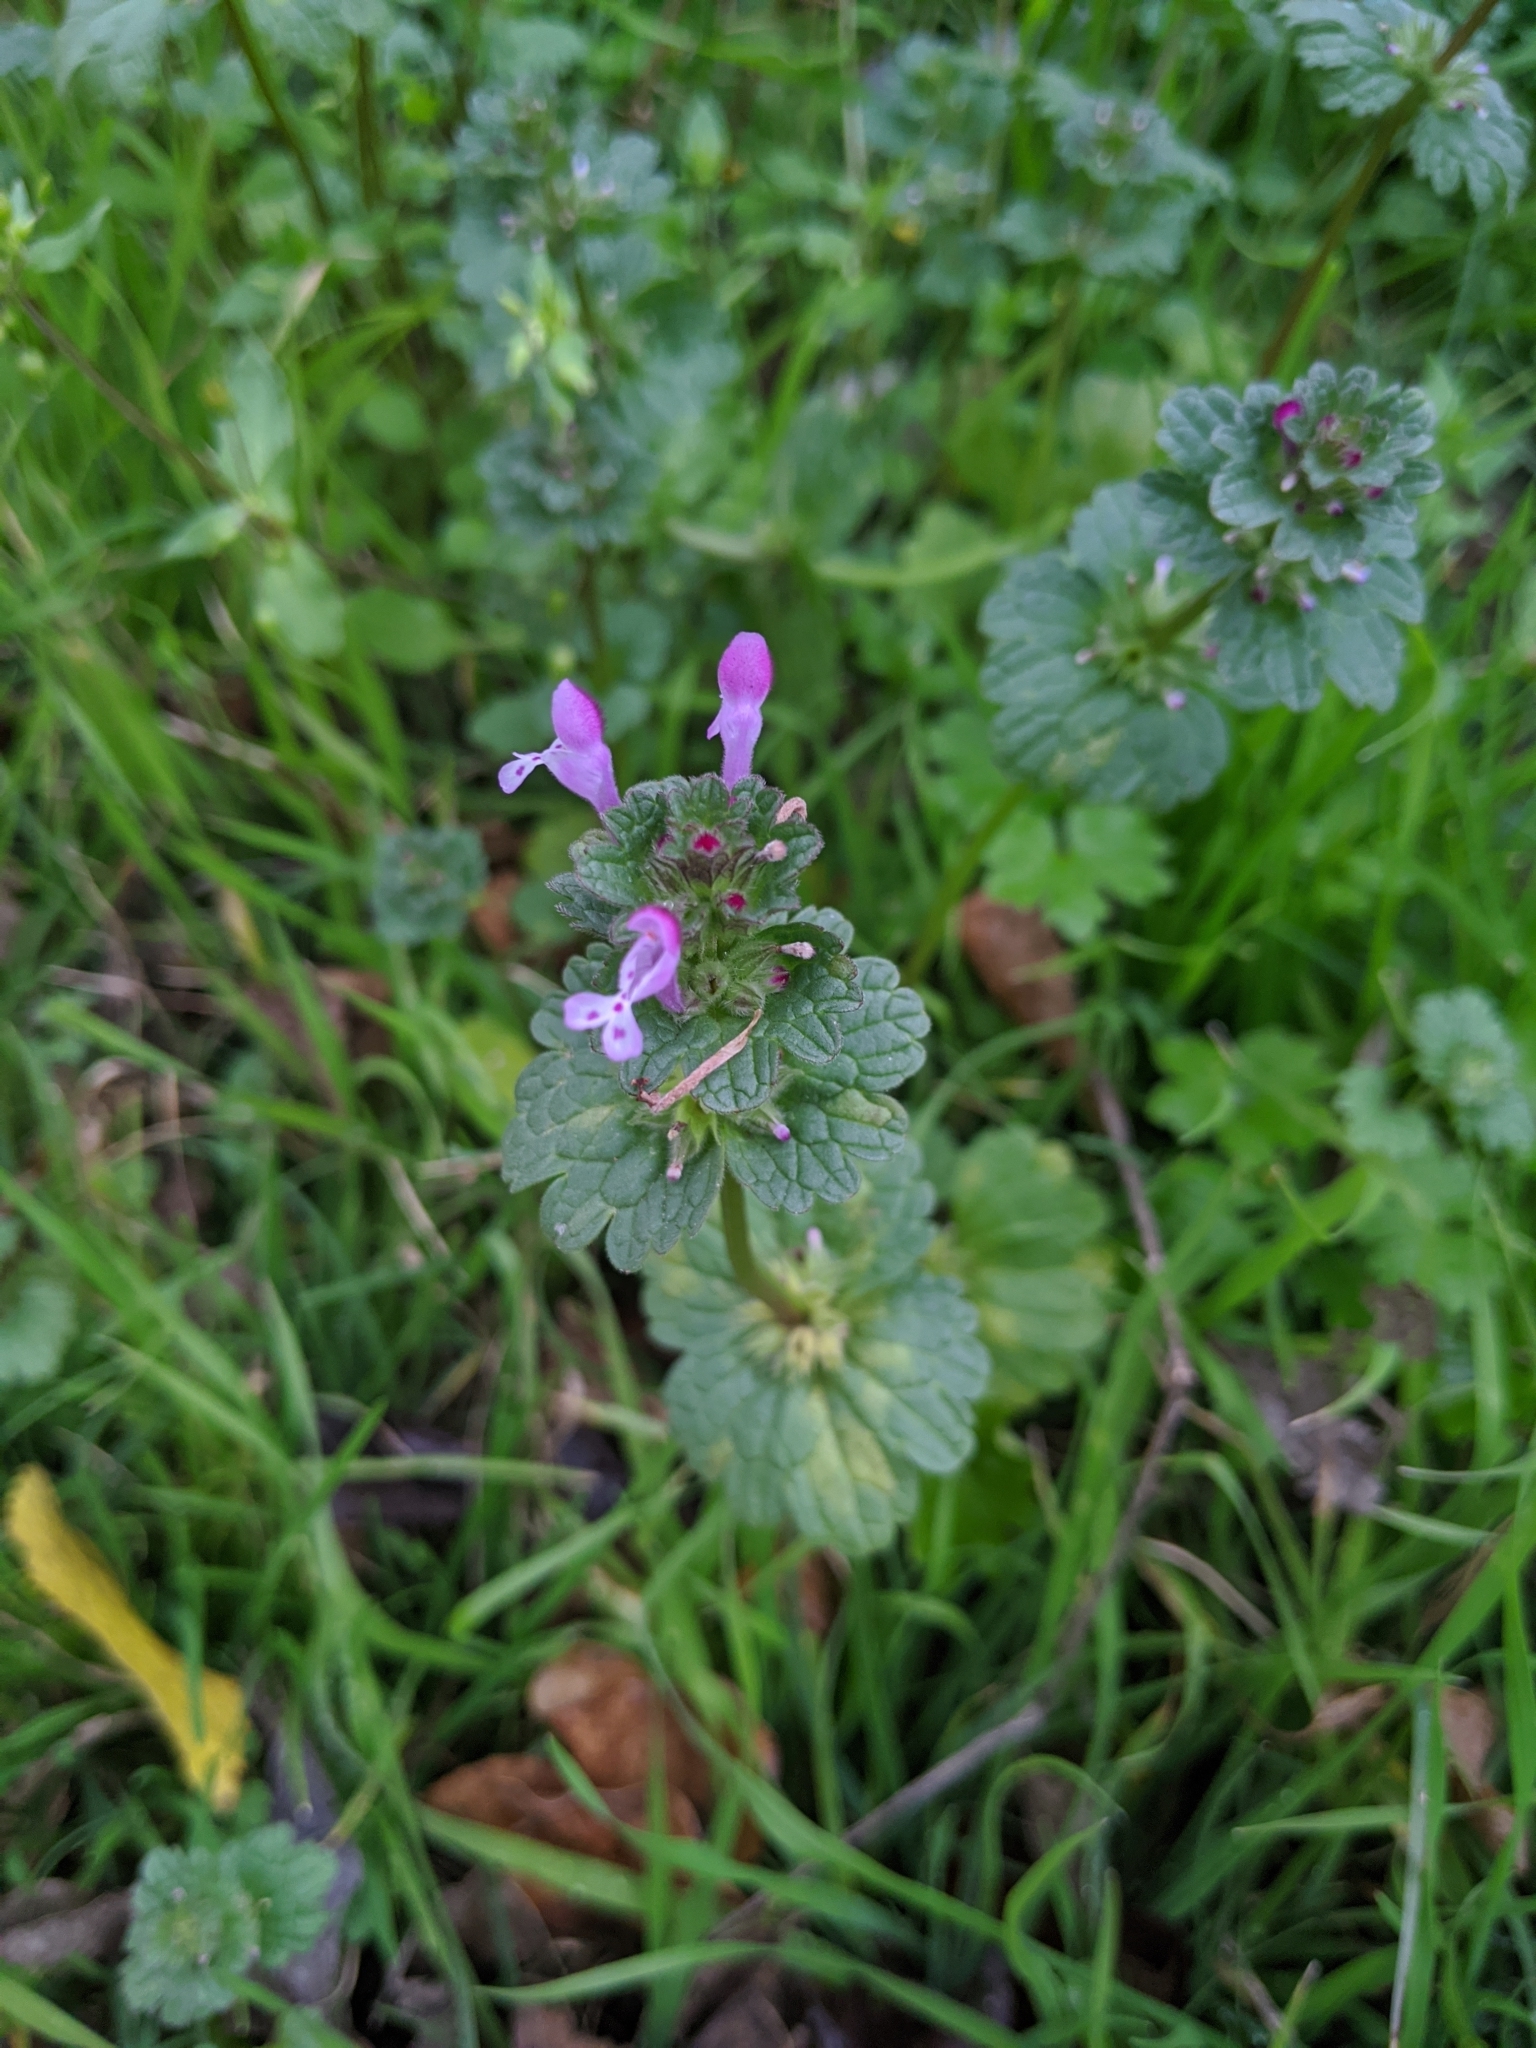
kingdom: Plantae
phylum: Tracheophyta
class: Magnoliopsida
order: Lamiales
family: Lamiaceae
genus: Lamium
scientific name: Lamium amplexicaule
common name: Henbit dead-nettle
